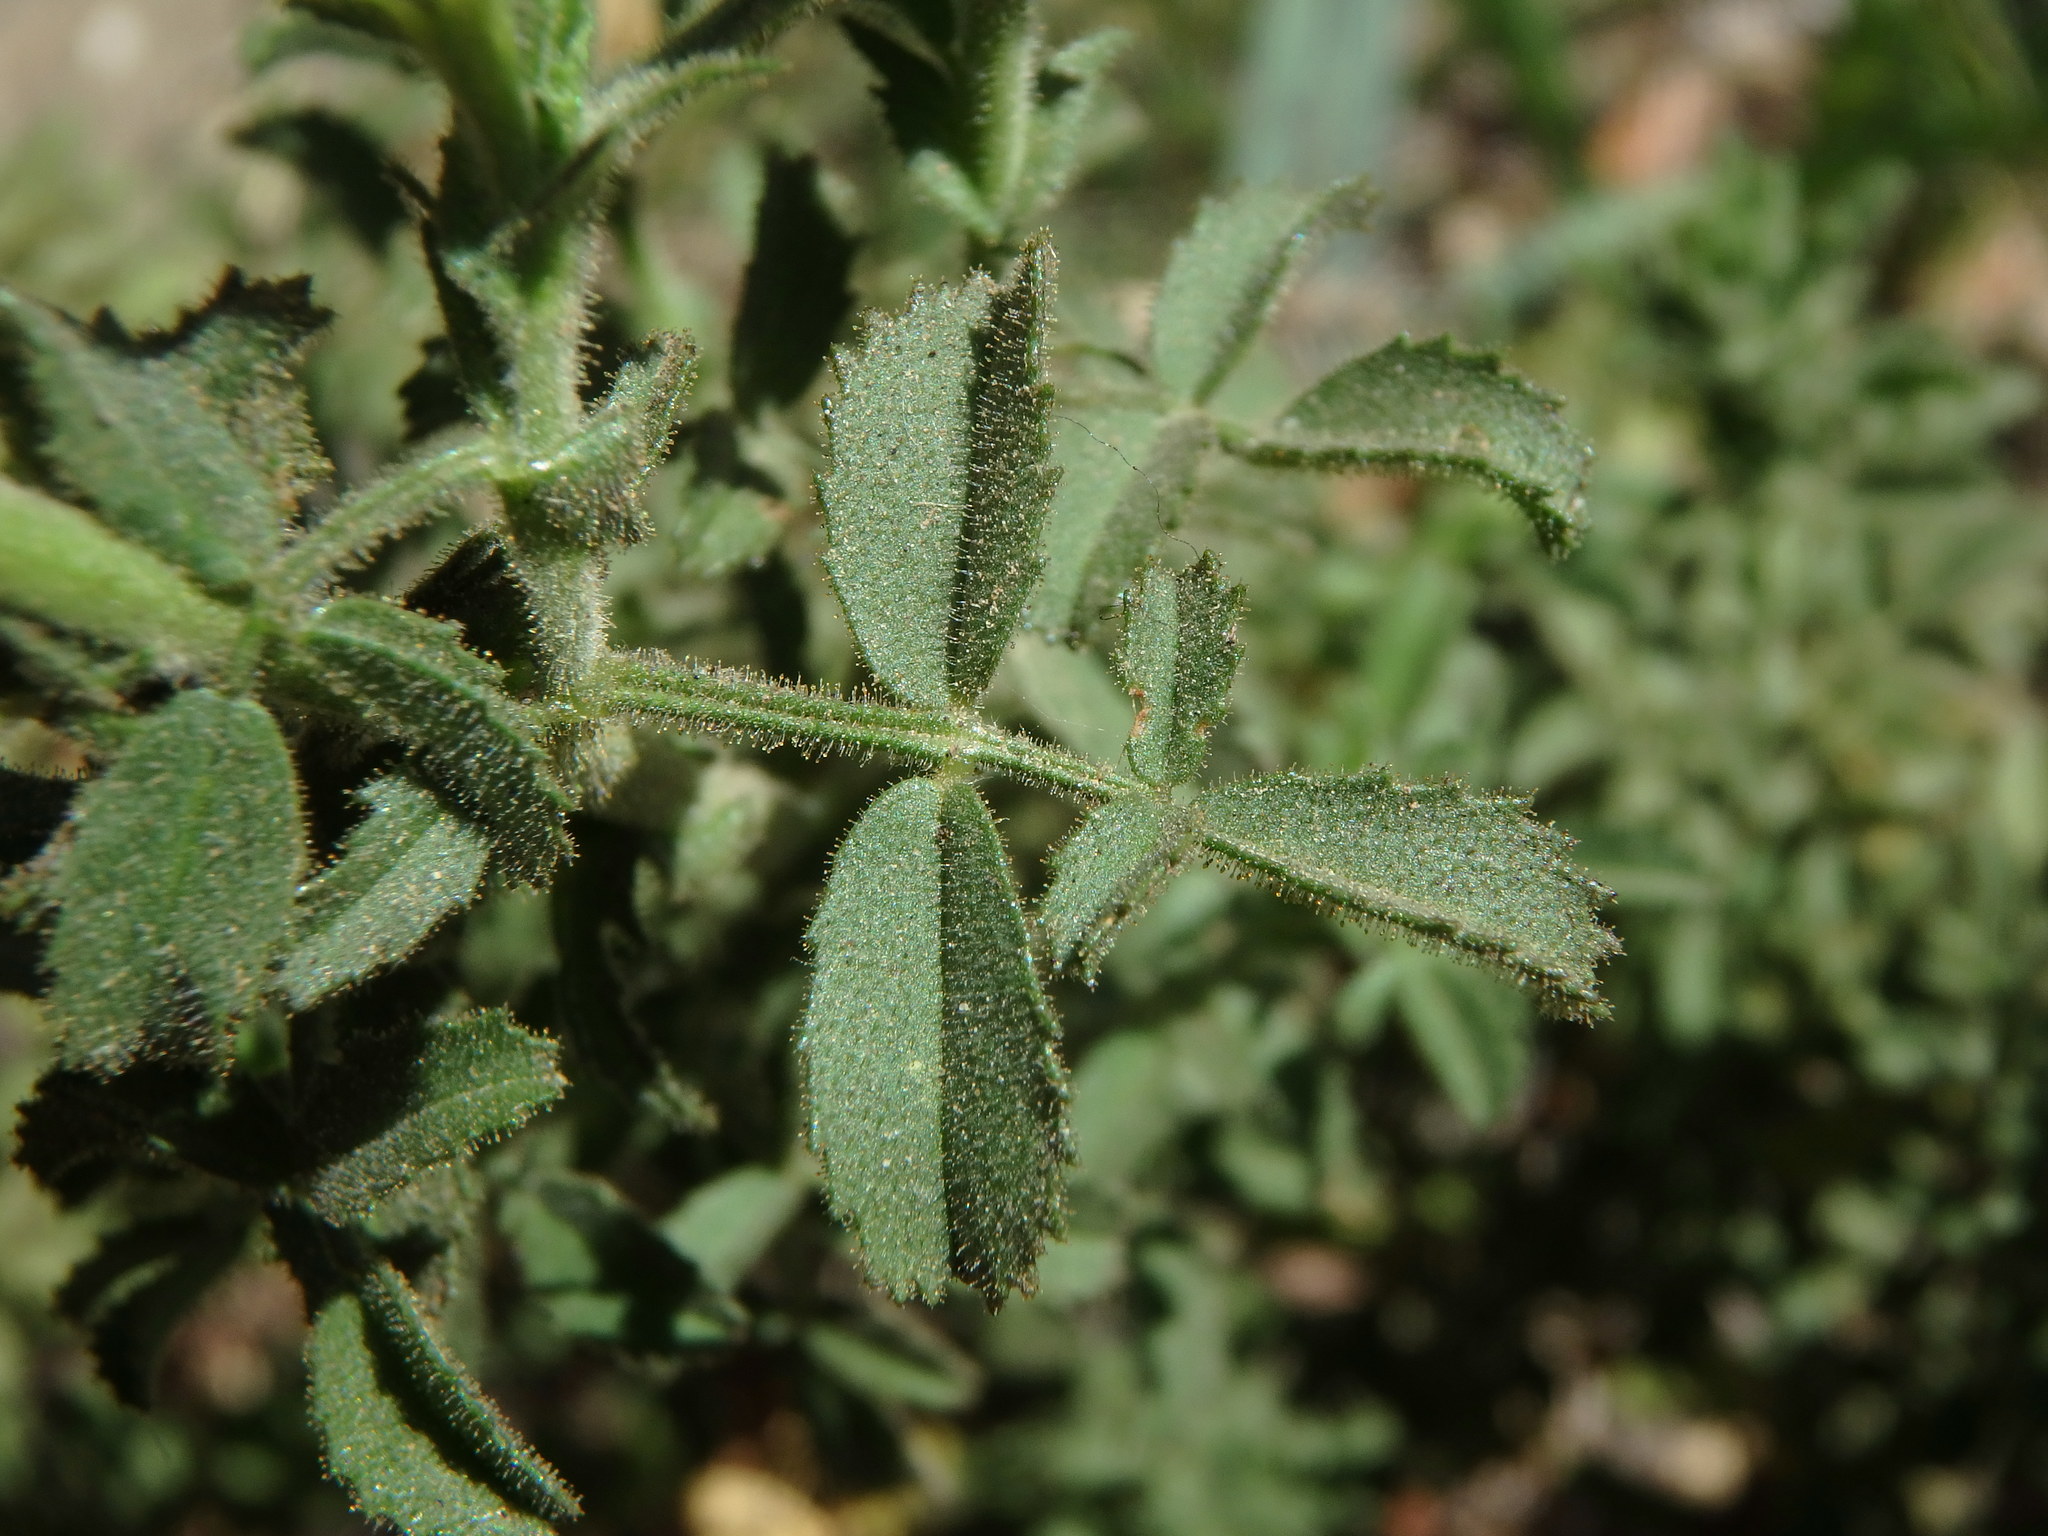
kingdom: Plantae
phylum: Tracheophyta
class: Magnoliopsida
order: Fabales
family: Fabaceae
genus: Ononis
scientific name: Ononis natrix
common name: Yellow restharrow
